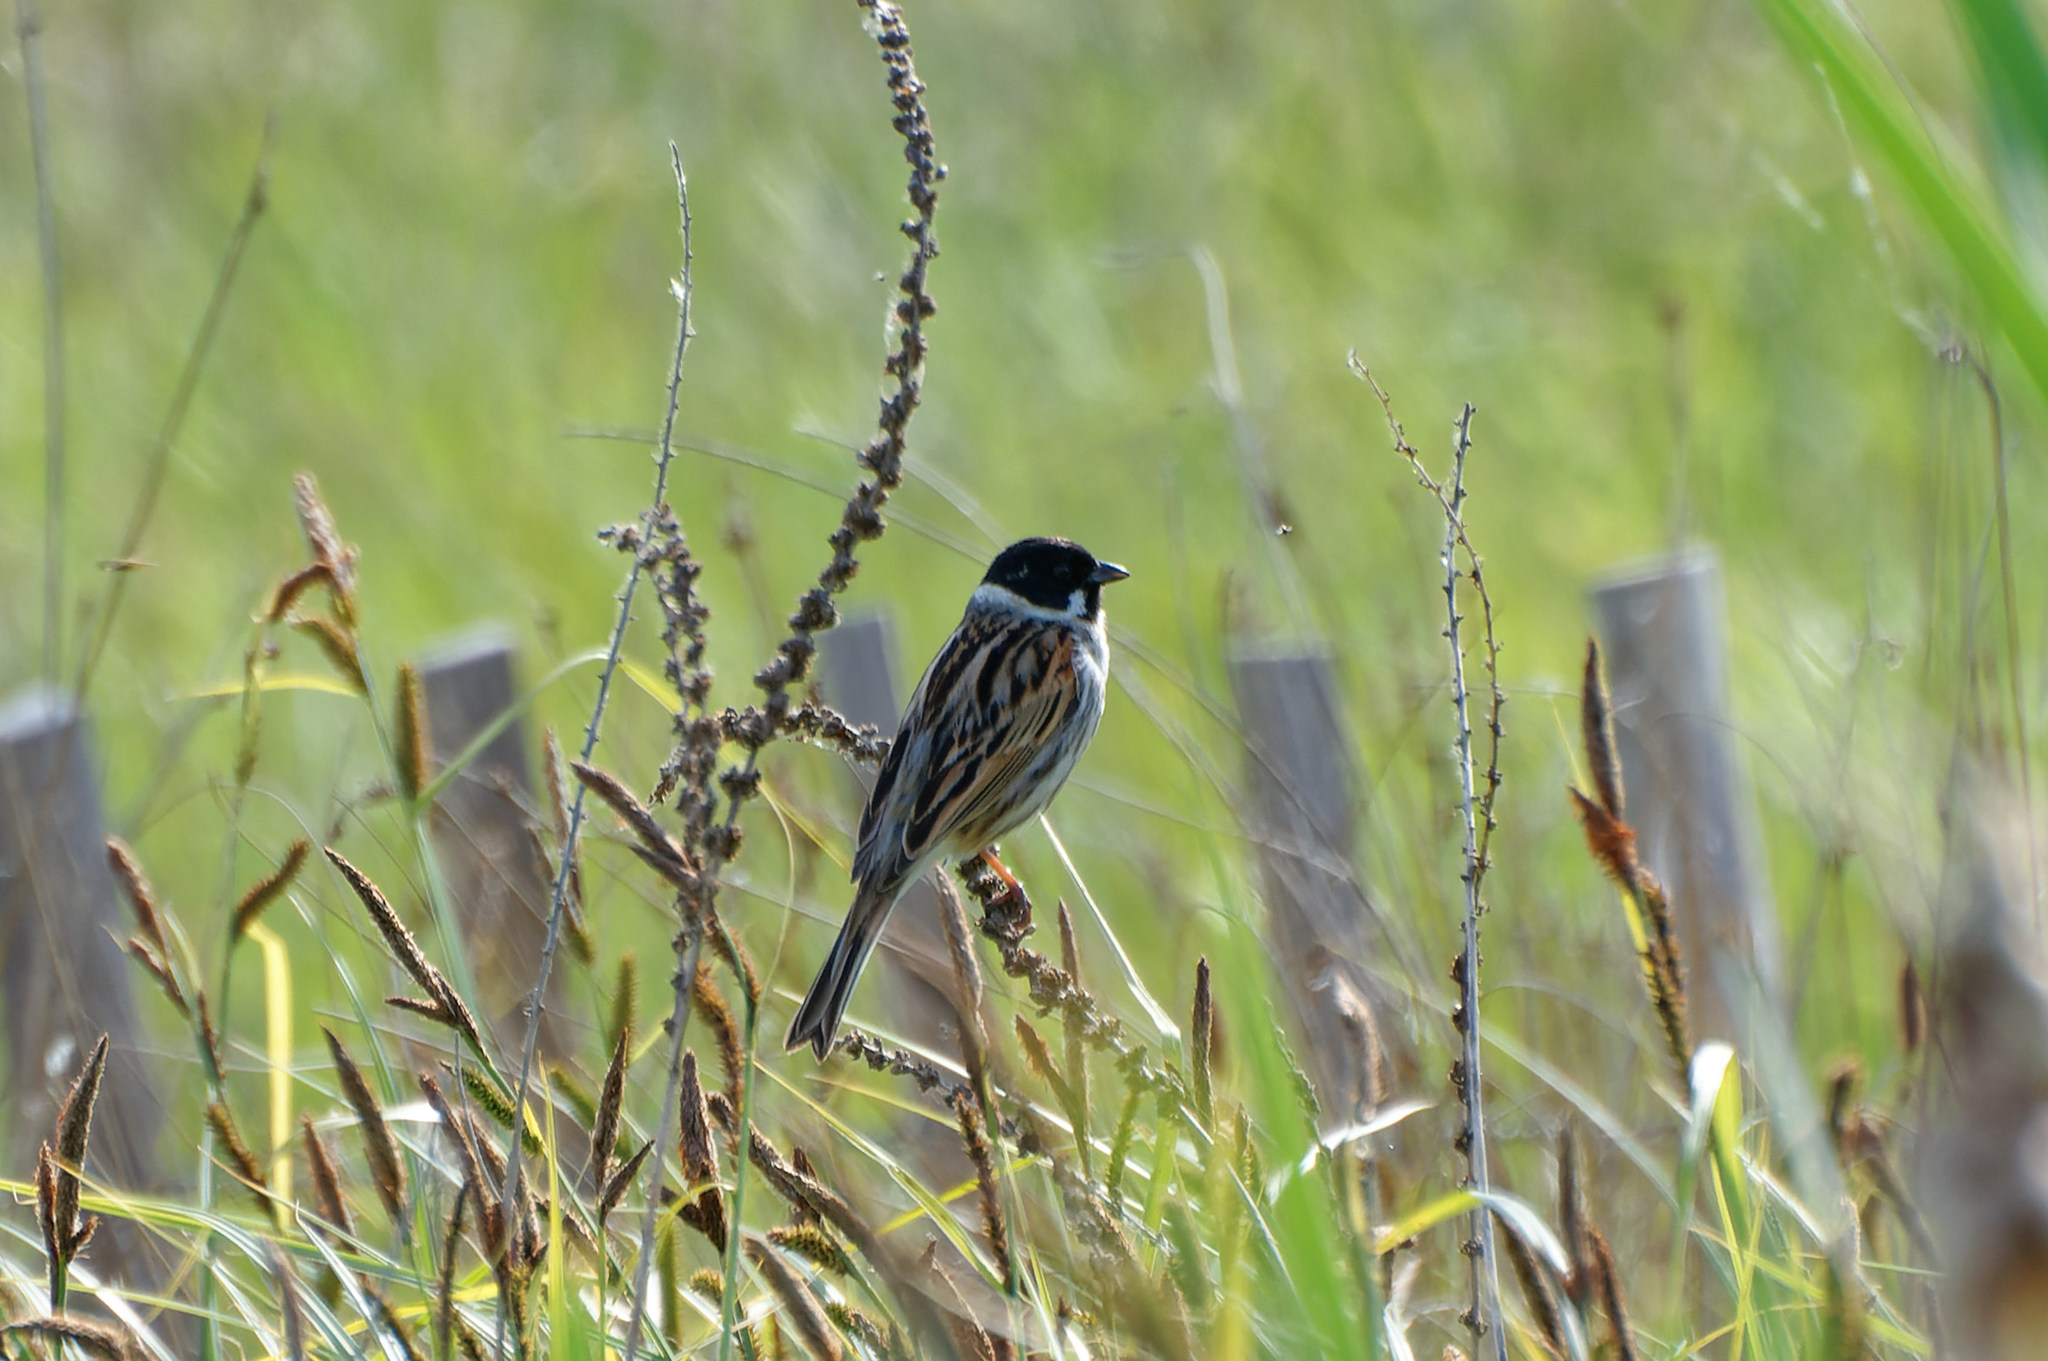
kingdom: Animalia
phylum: Chordata
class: Aves
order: Passeriformes
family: Emberizidae
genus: Emberiza
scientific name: Emberiza schoeniclus
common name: Reed bunting
